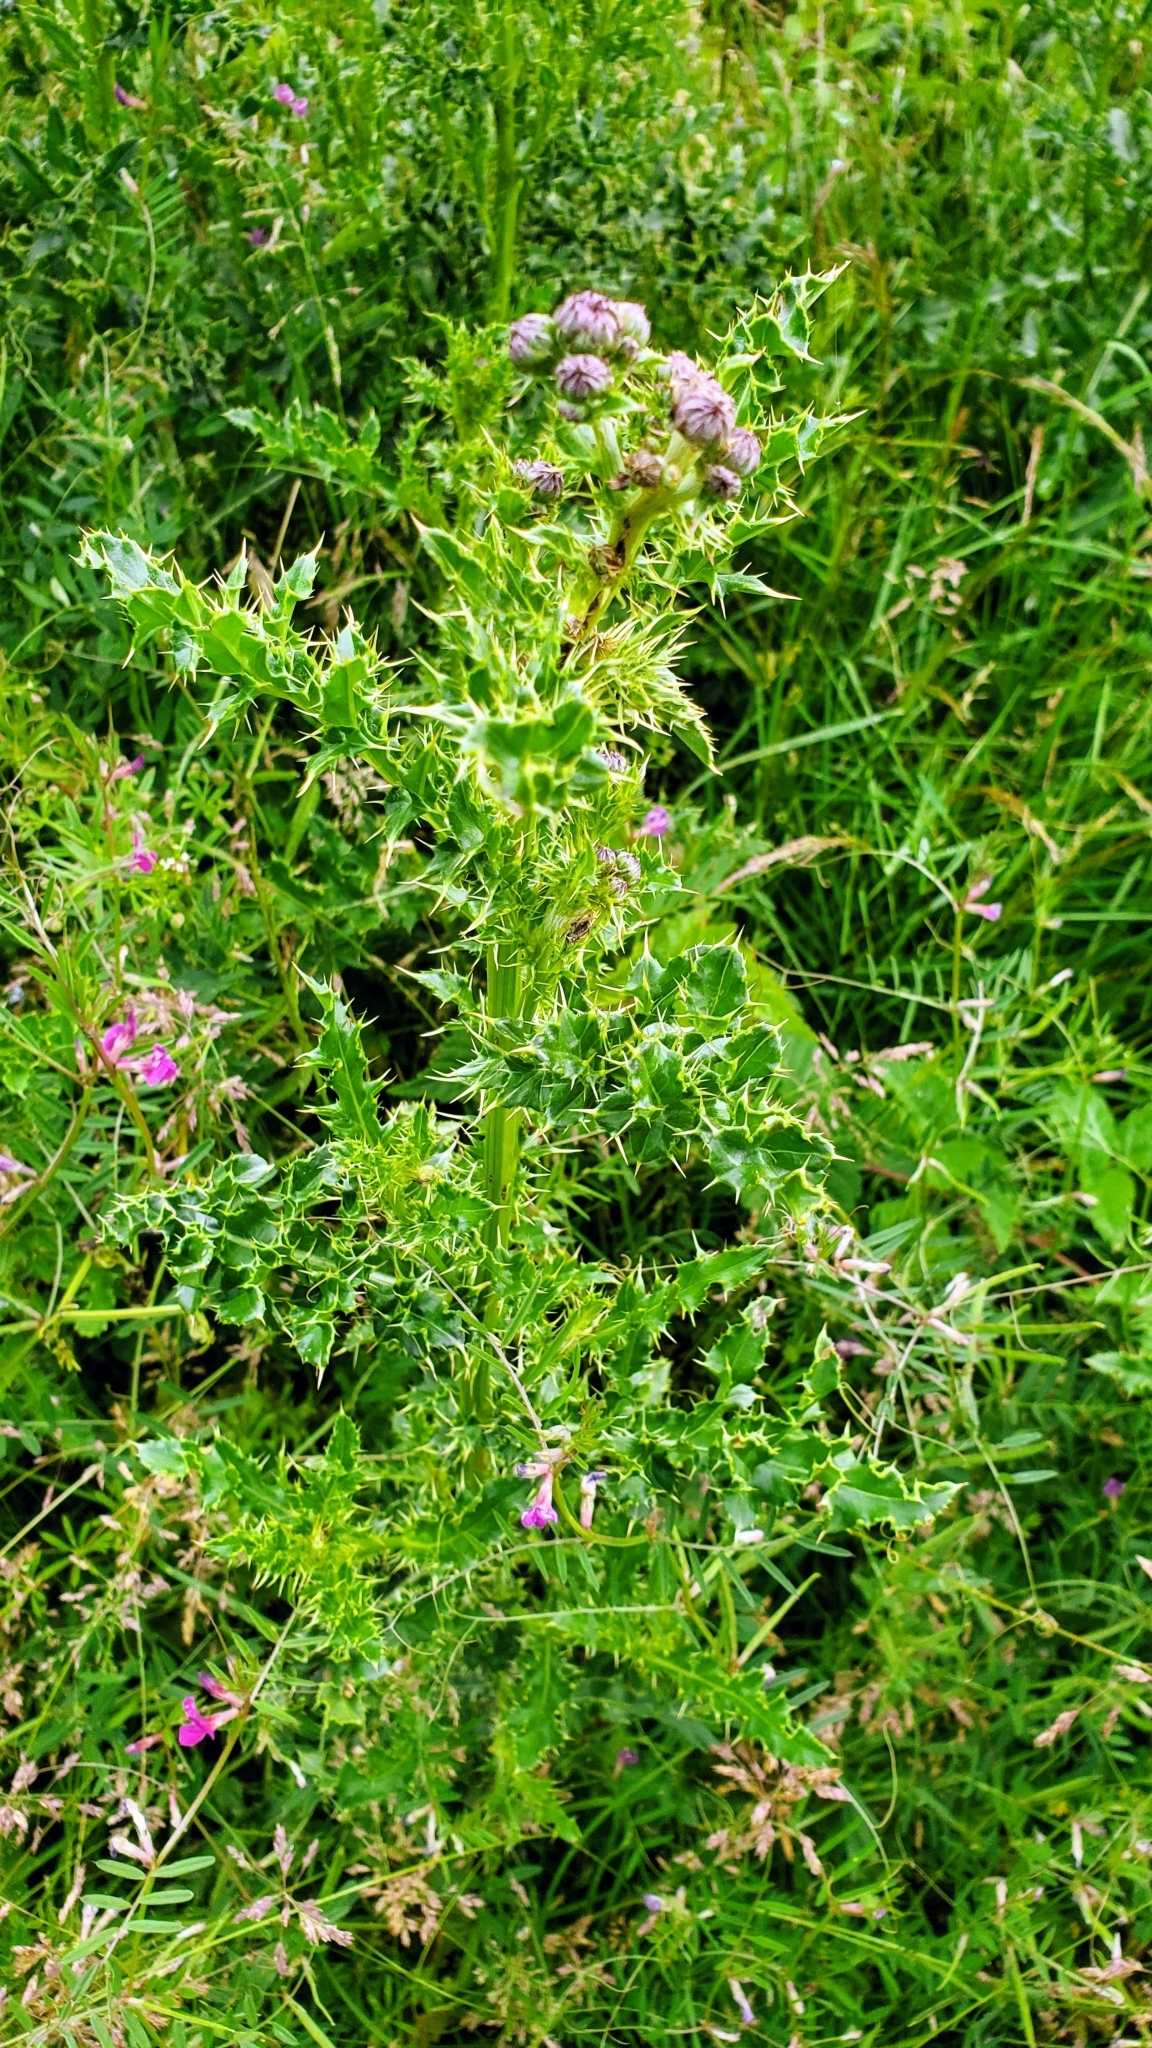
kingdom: Plantae
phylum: Tracheophyta
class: Magnoliopsida
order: Asterales
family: Asteraceae
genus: Cirsium
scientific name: Cirsium arvense
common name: Creeping thistle
